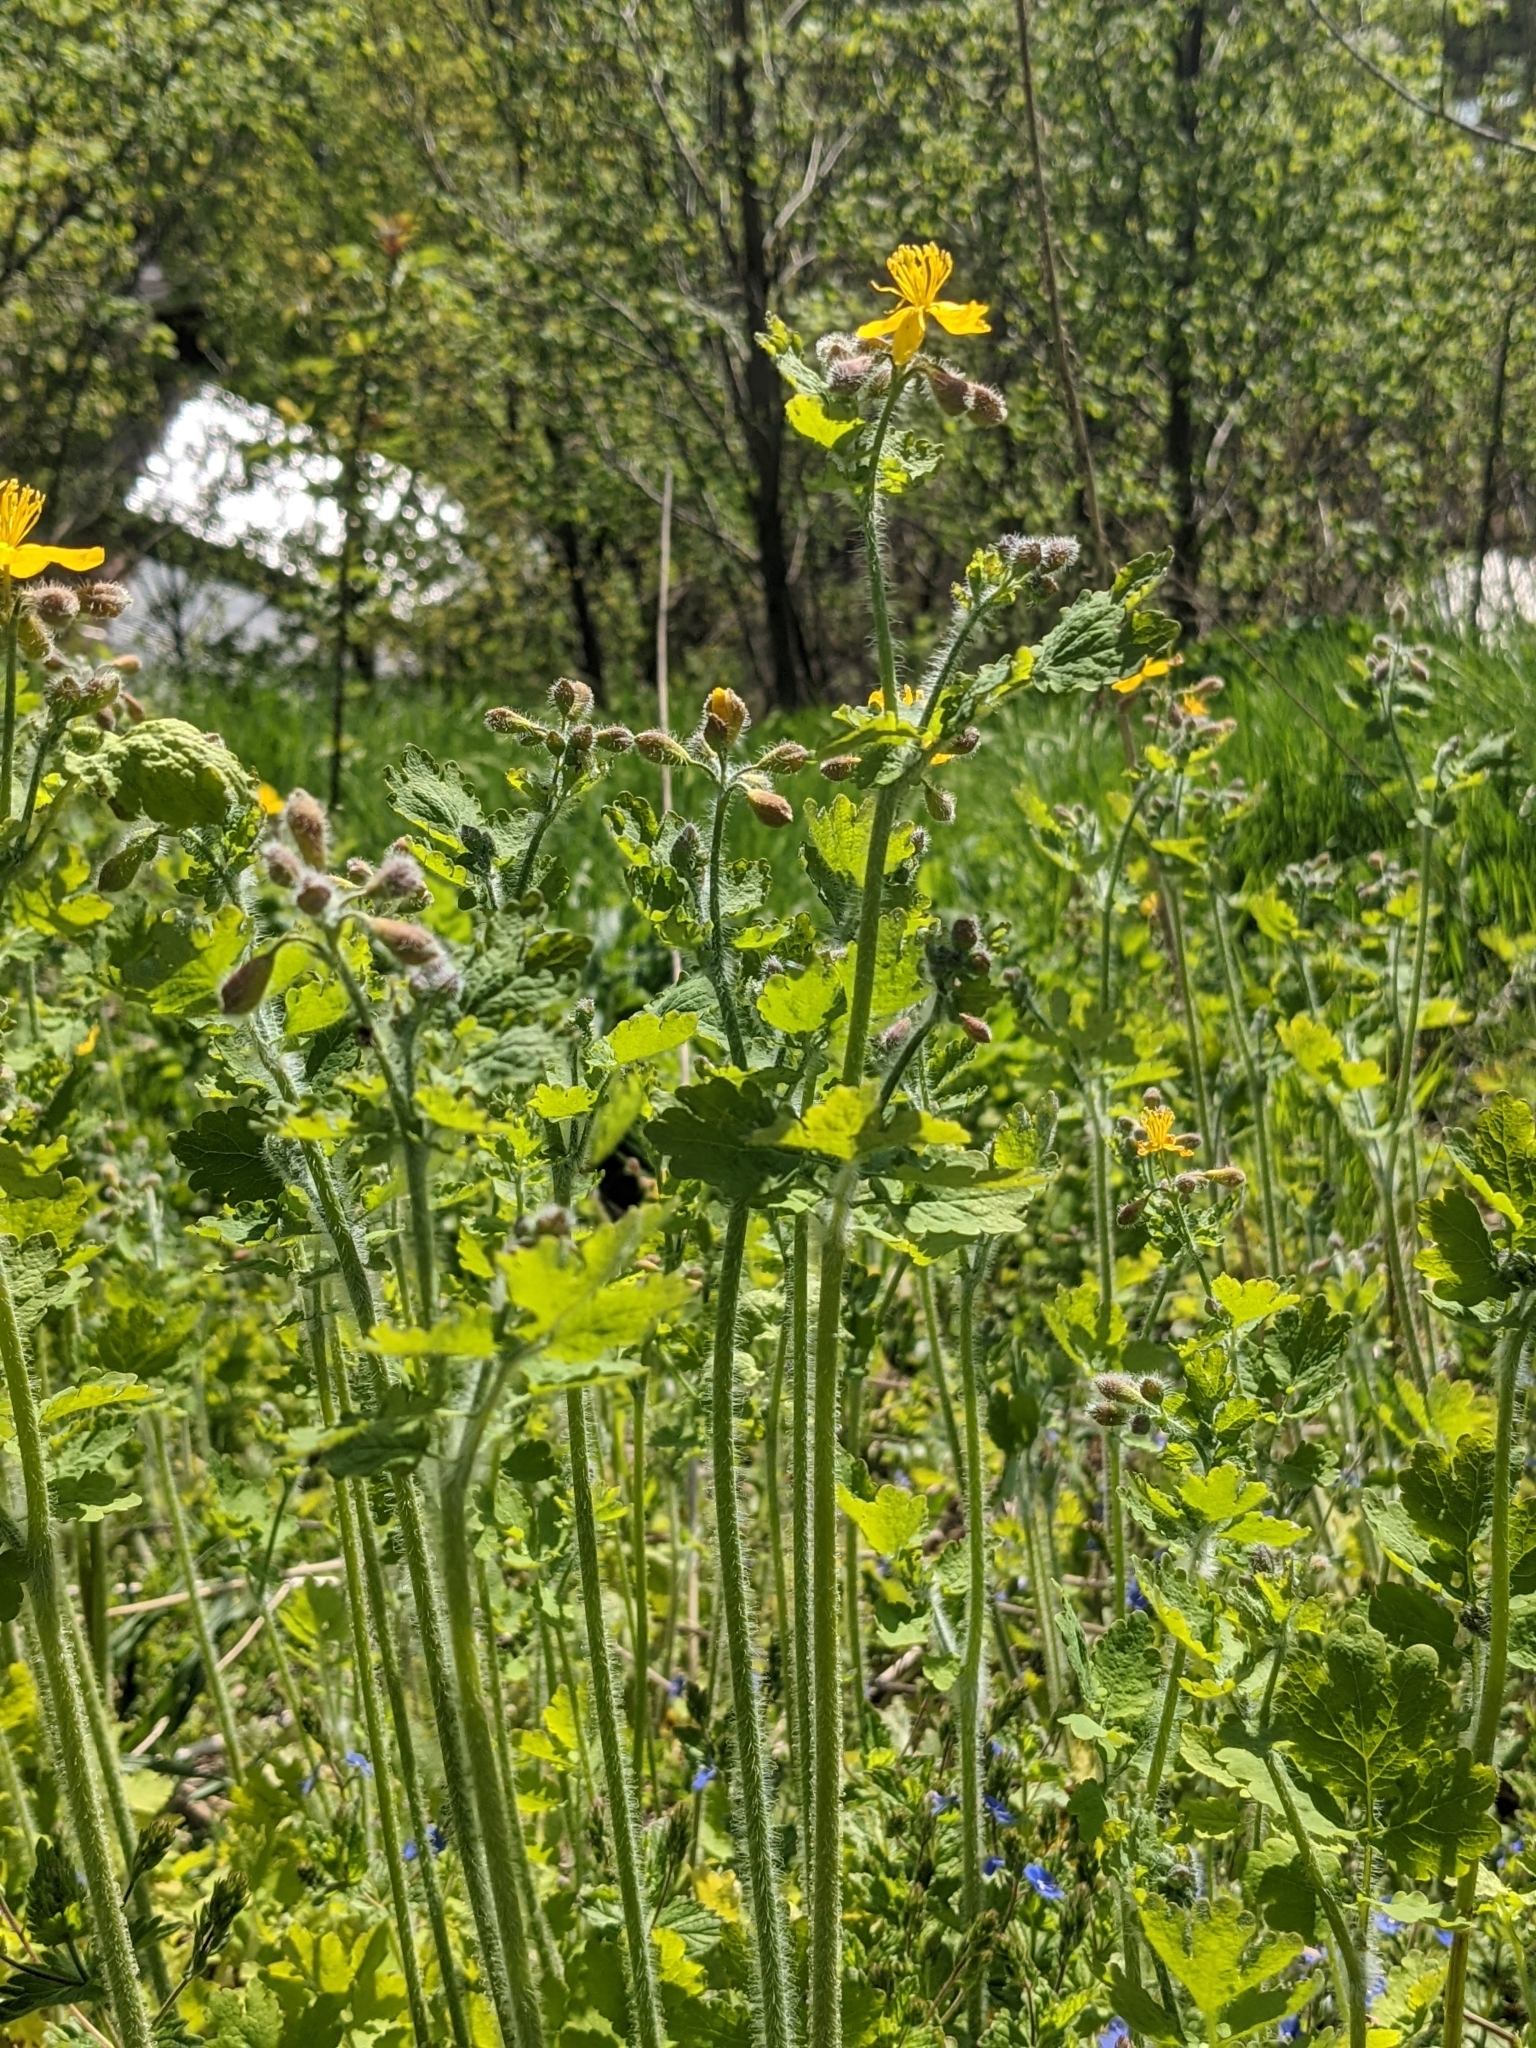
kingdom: Plantae
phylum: Tracheophyta
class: Magnoliopsida
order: Ranunculales
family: Papaveraceae
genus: Chelidonium
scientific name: Chelidonium majus
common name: Greater celandine
